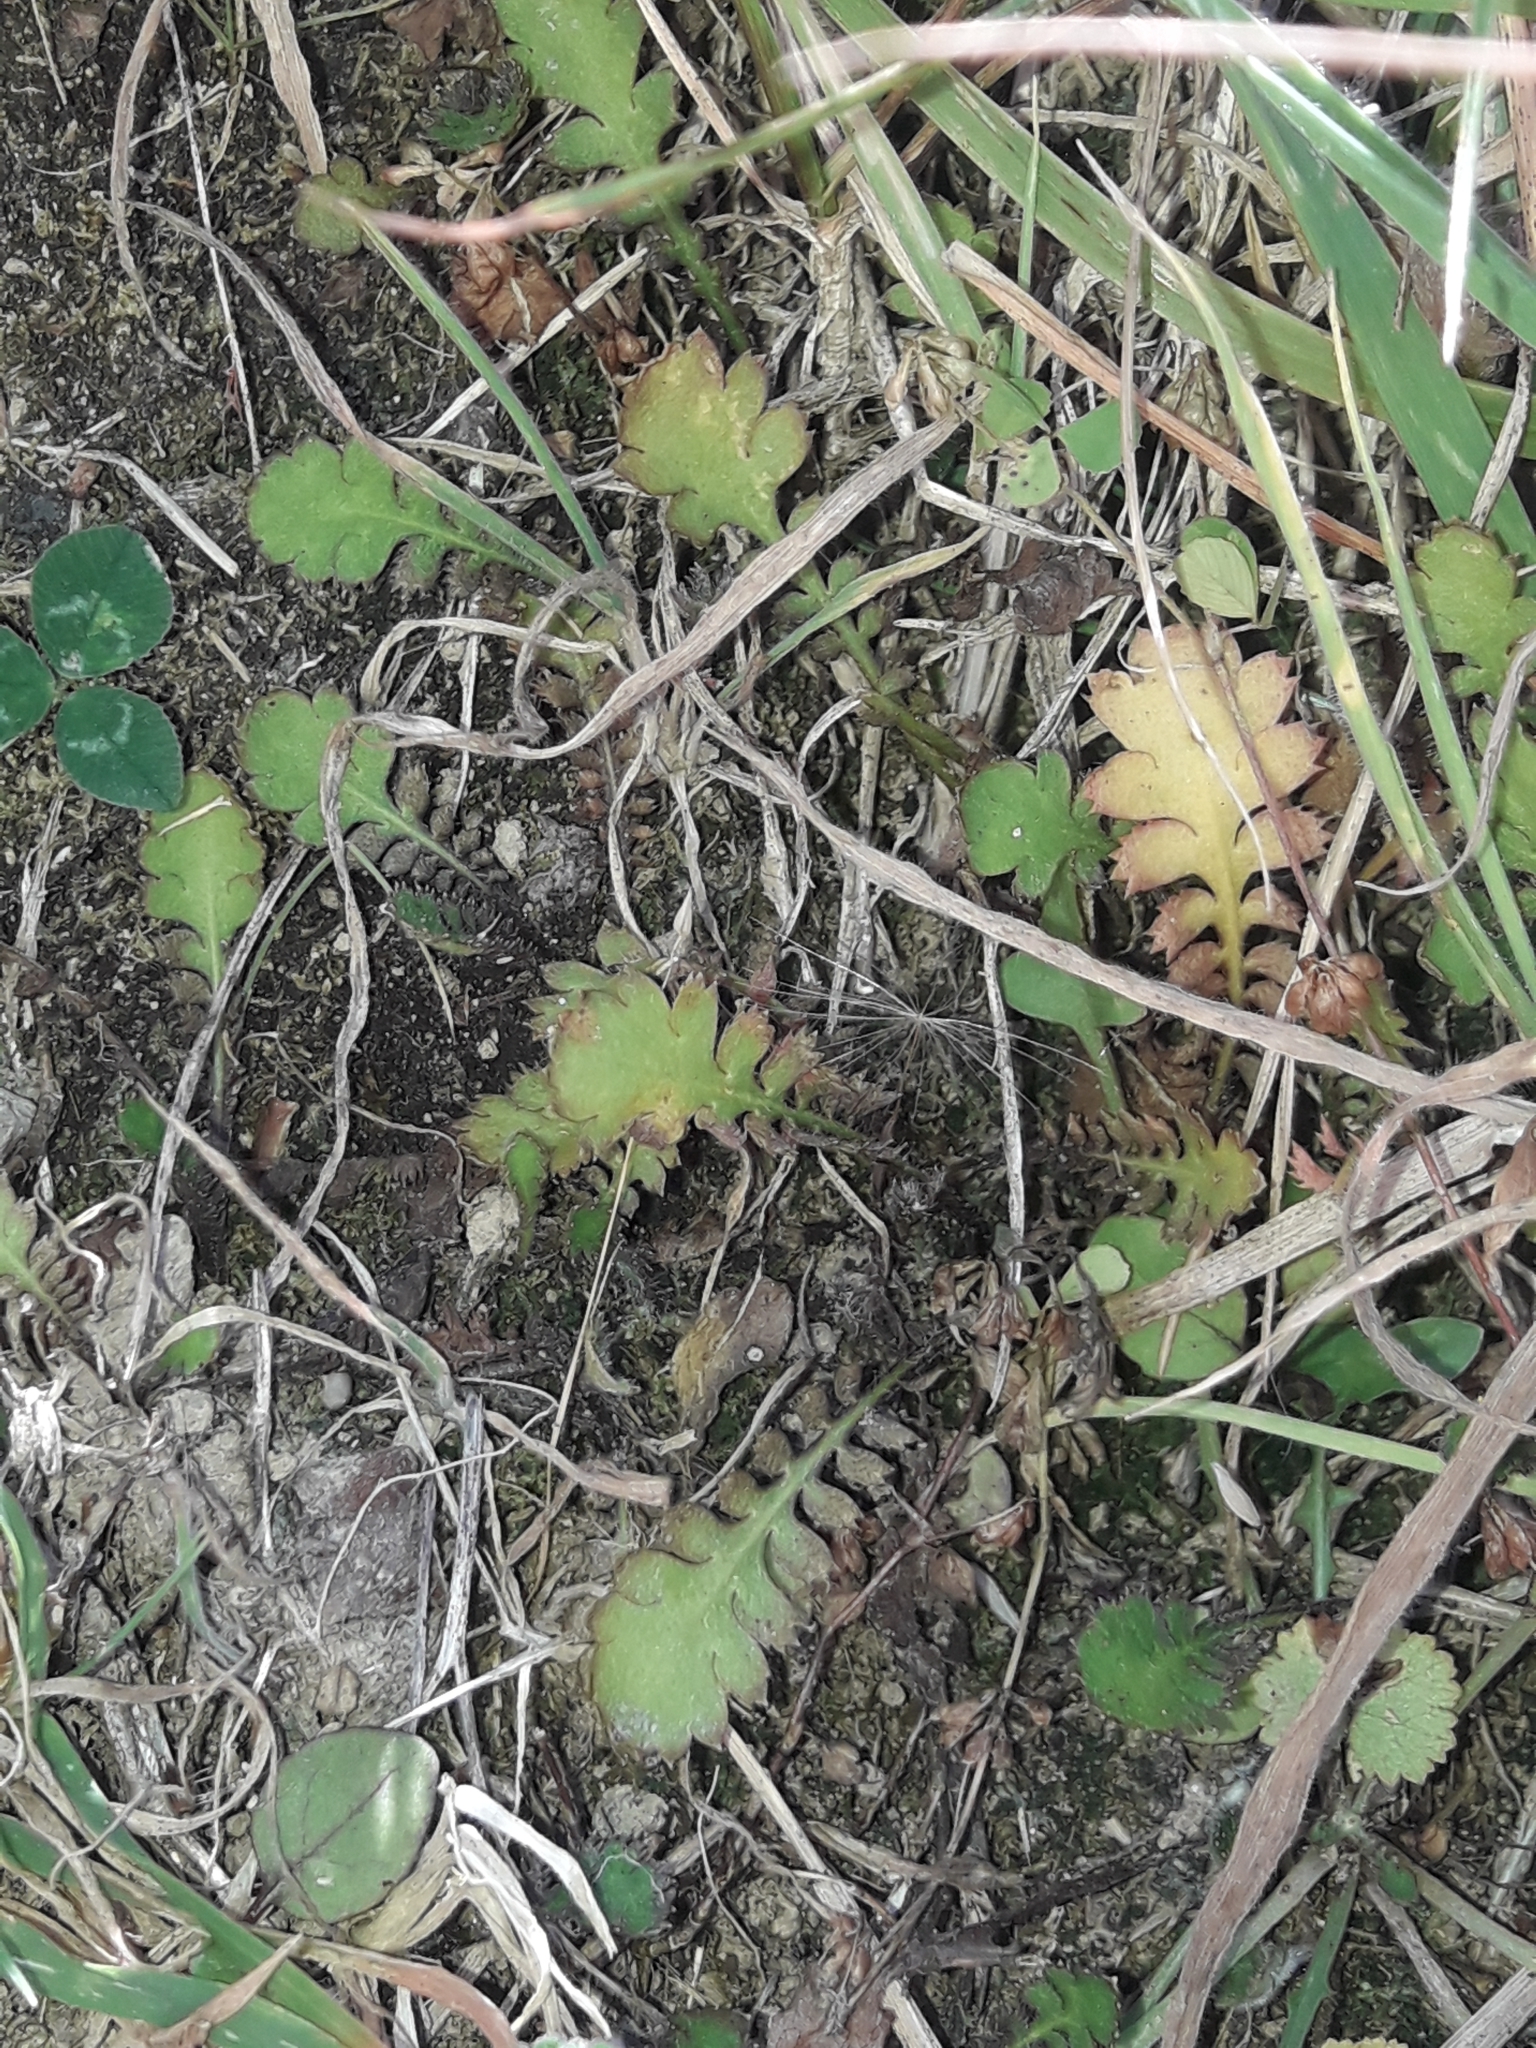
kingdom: Plantae
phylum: Tracheophyta
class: Magnoliopsida
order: Asterales
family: Asteraceae
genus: Leptinella
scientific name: Leptinella squalida
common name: New zealand brass-buttons
